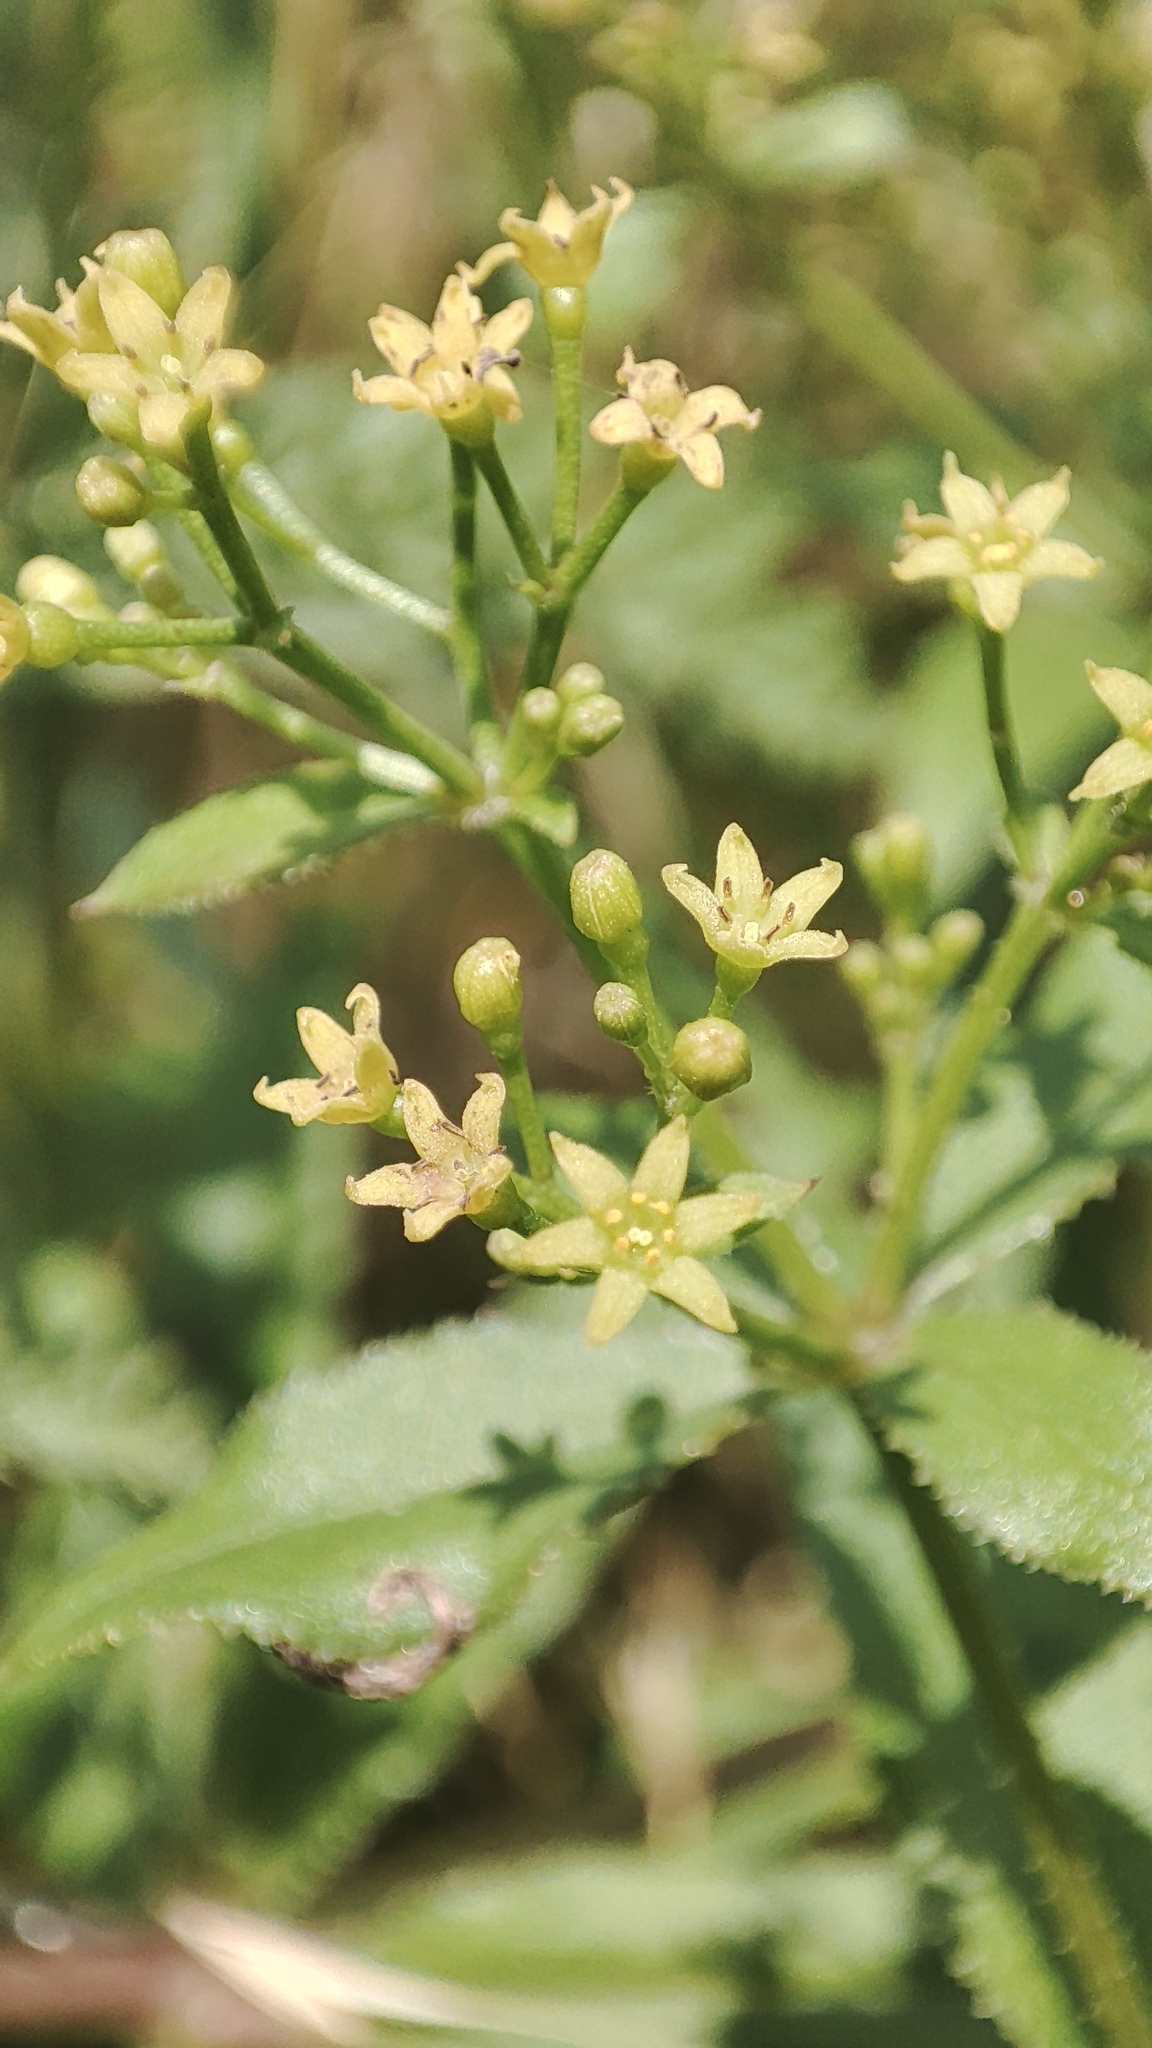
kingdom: Plantae
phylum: Tracheophyta
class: Magnoliopsida
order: Gentianales
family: Rubiaceae
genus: Rubia
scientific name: Rubia tinctorum
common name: Dyer's madder
